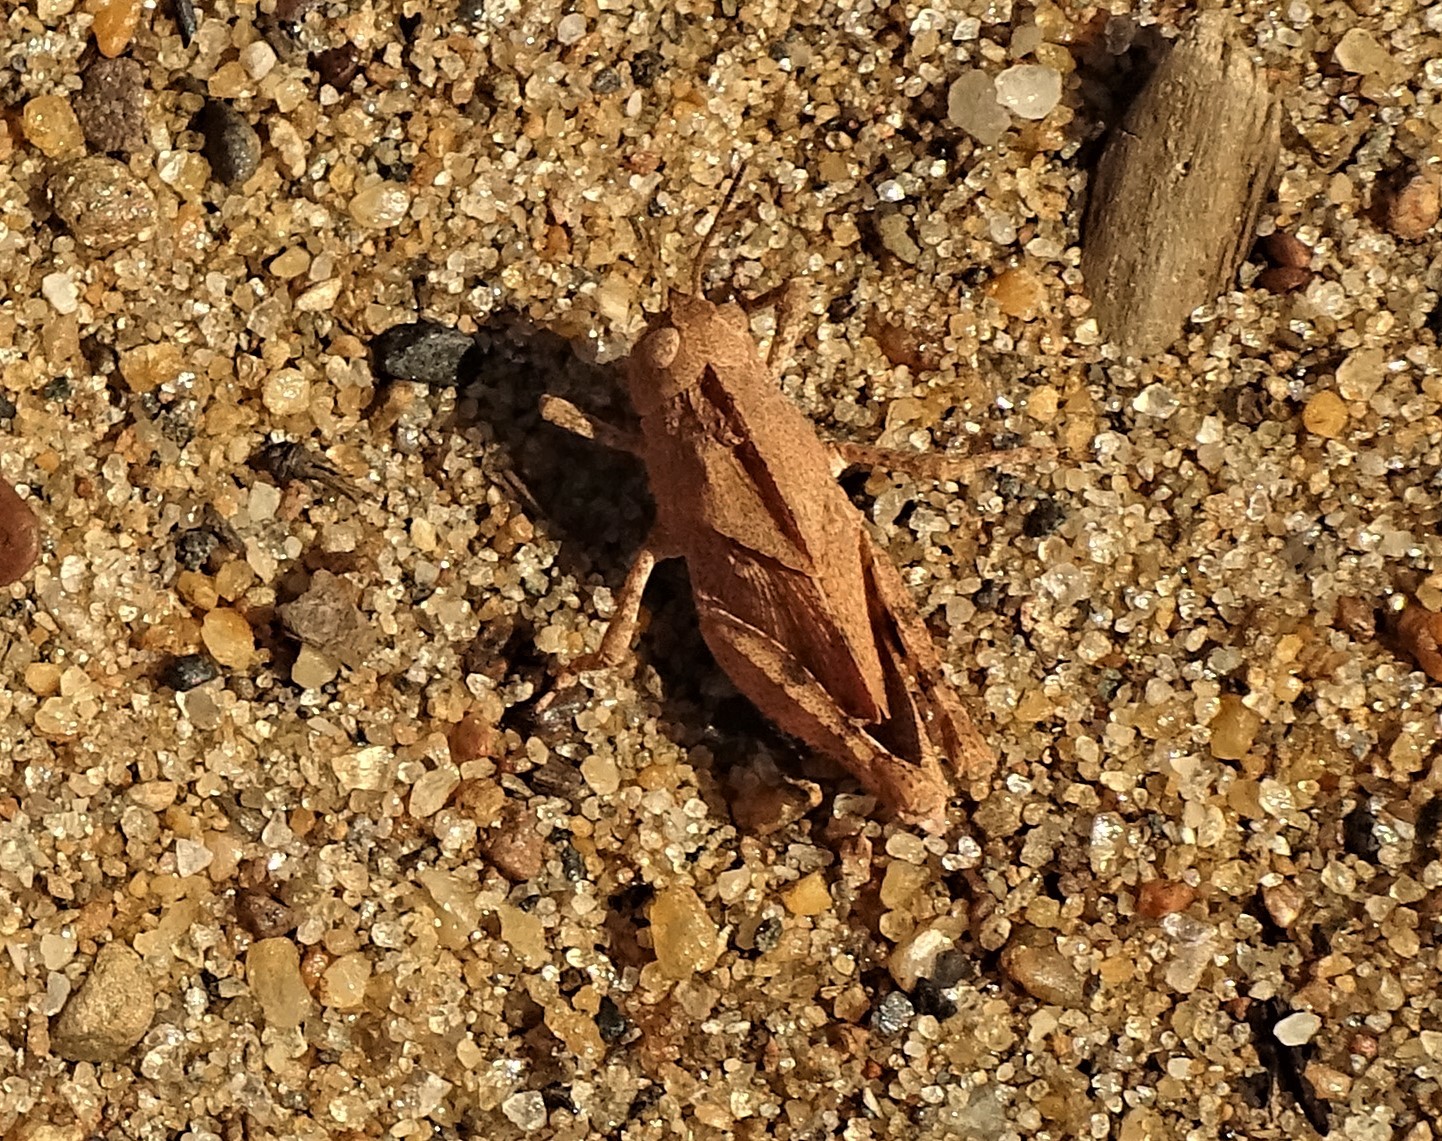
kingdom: Animalia
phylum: Arthropoda
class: Insecta
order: Orthoptera
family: Acrididae
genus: Dissosteira
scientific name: Dissosteira carolina
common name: Carolina grasshopper
